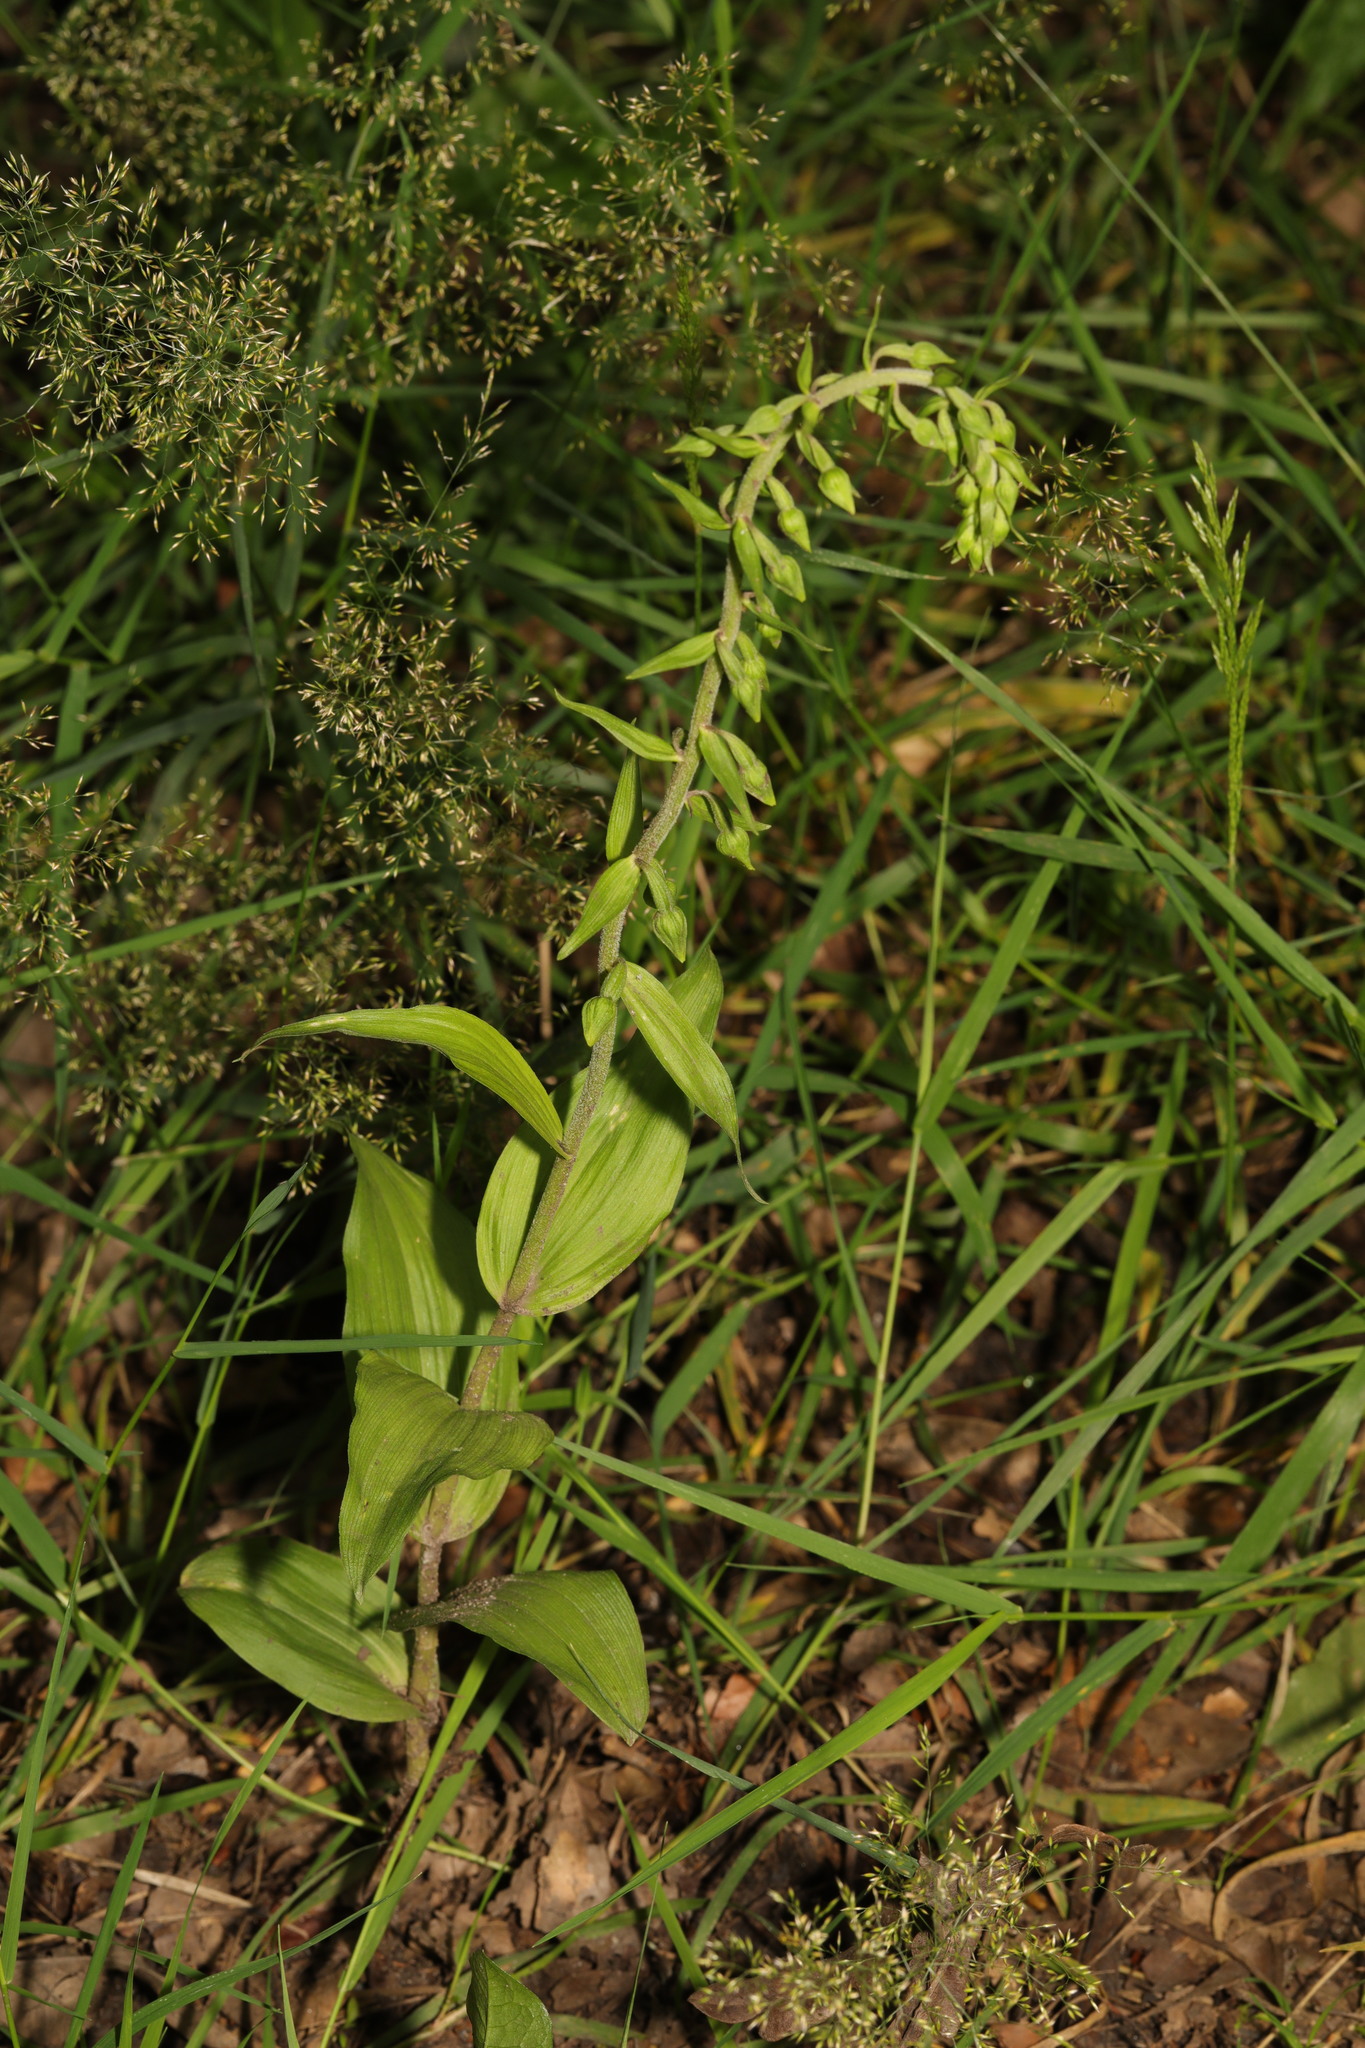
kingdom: Plantae
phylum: Tracheophyta
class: Liliopsida
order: Asparagales
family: Orchidaceae
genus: Epipactis
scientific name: Epipactis helleborine
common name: Broad-leaved helleborine
